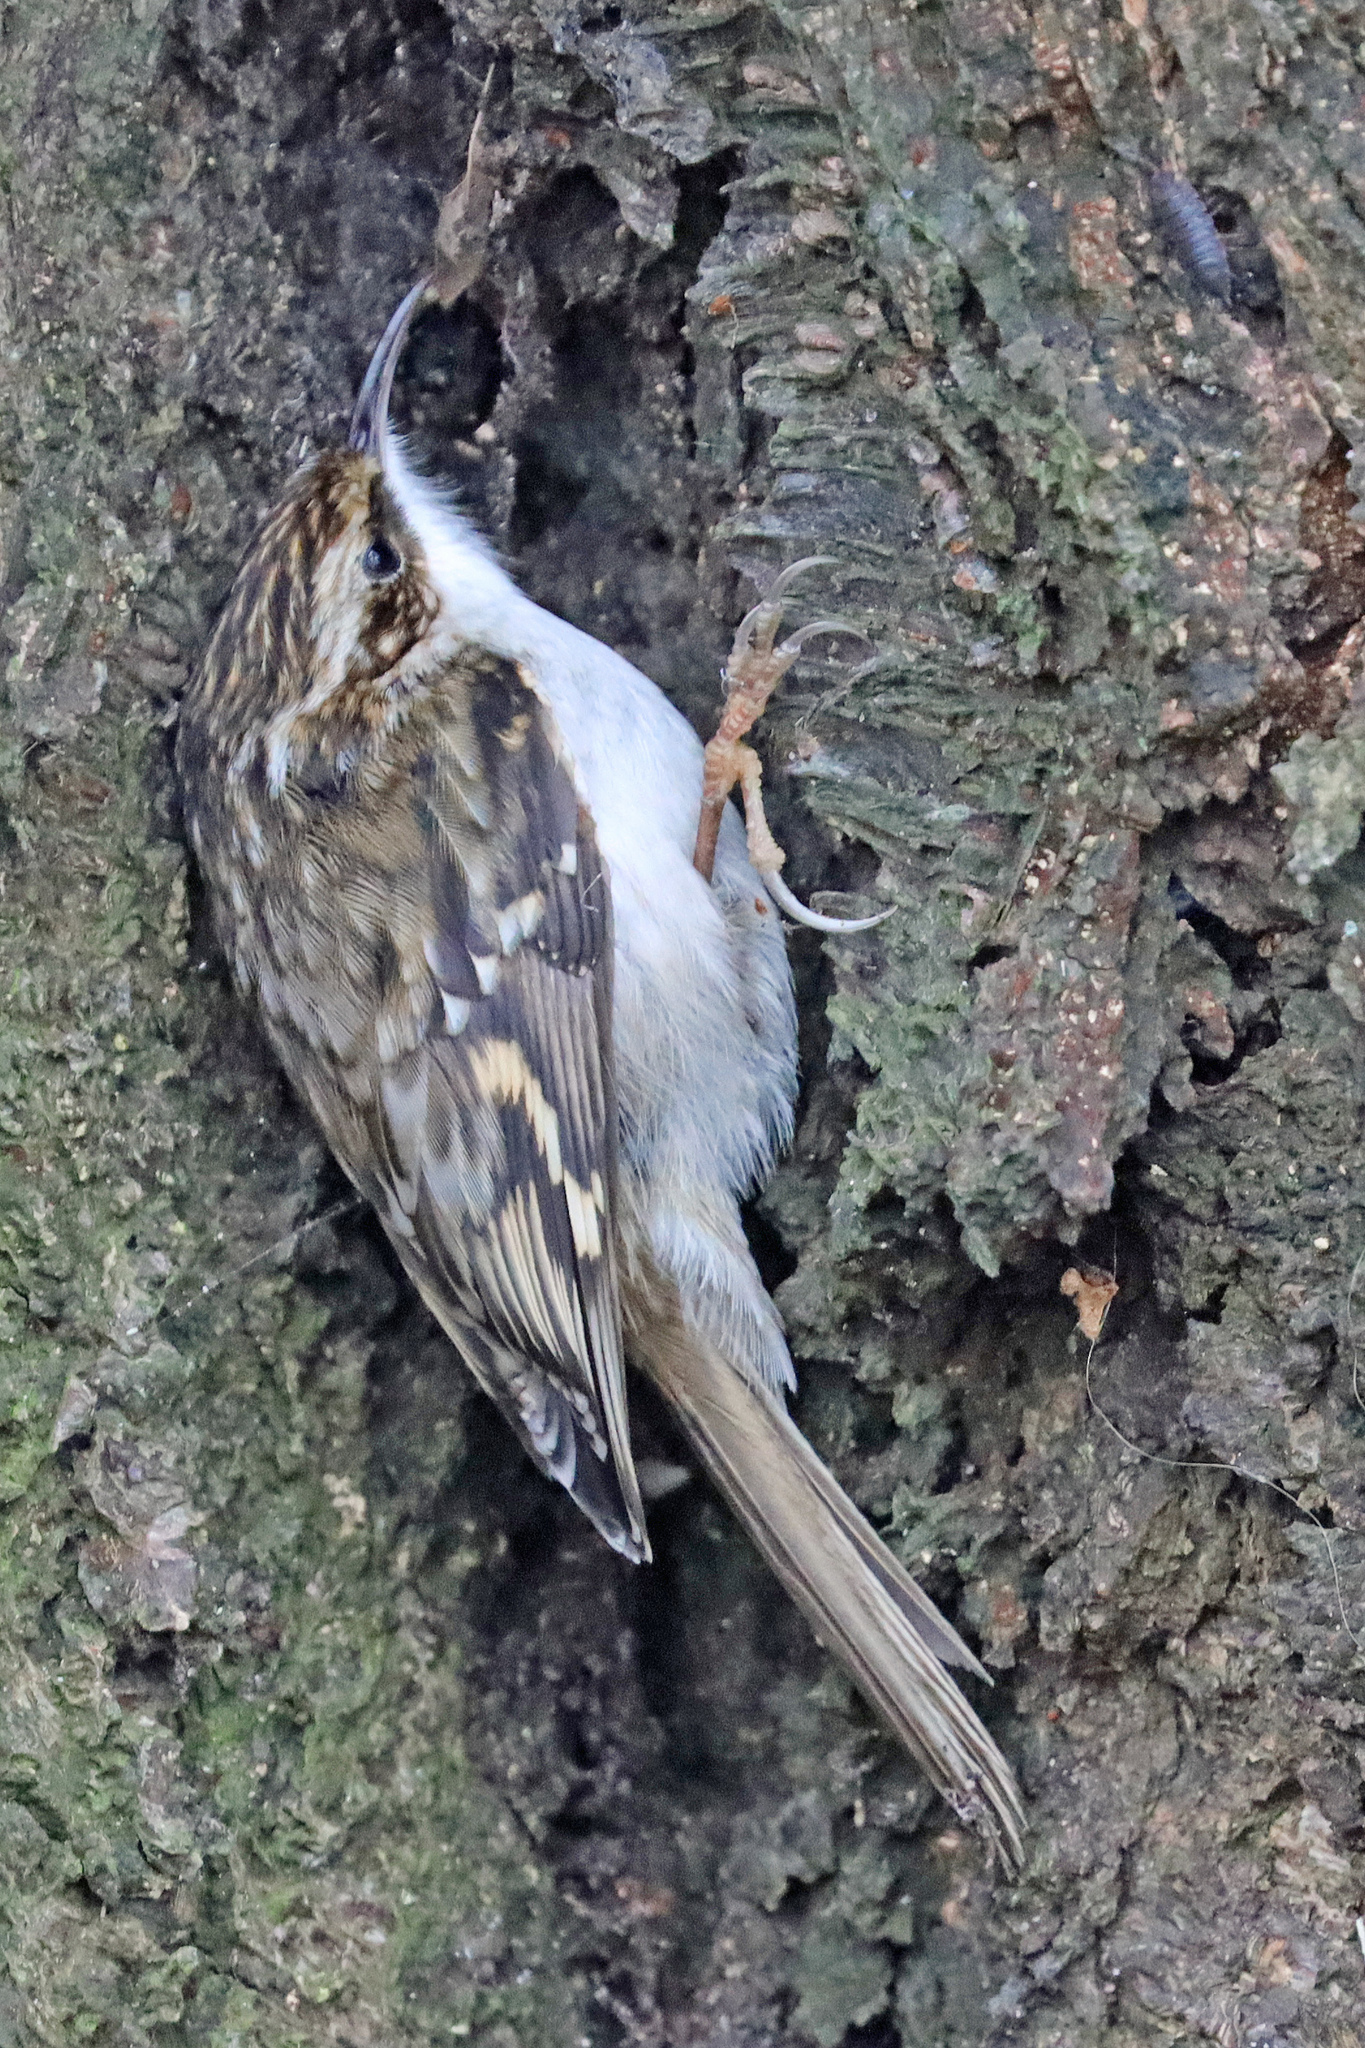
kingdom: Animalia
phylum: Chordata
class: Aves
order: Passeriformes
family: Certhiidae
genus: Certhia
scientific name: Certhia familiaris
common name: Eurasian treecreeper
